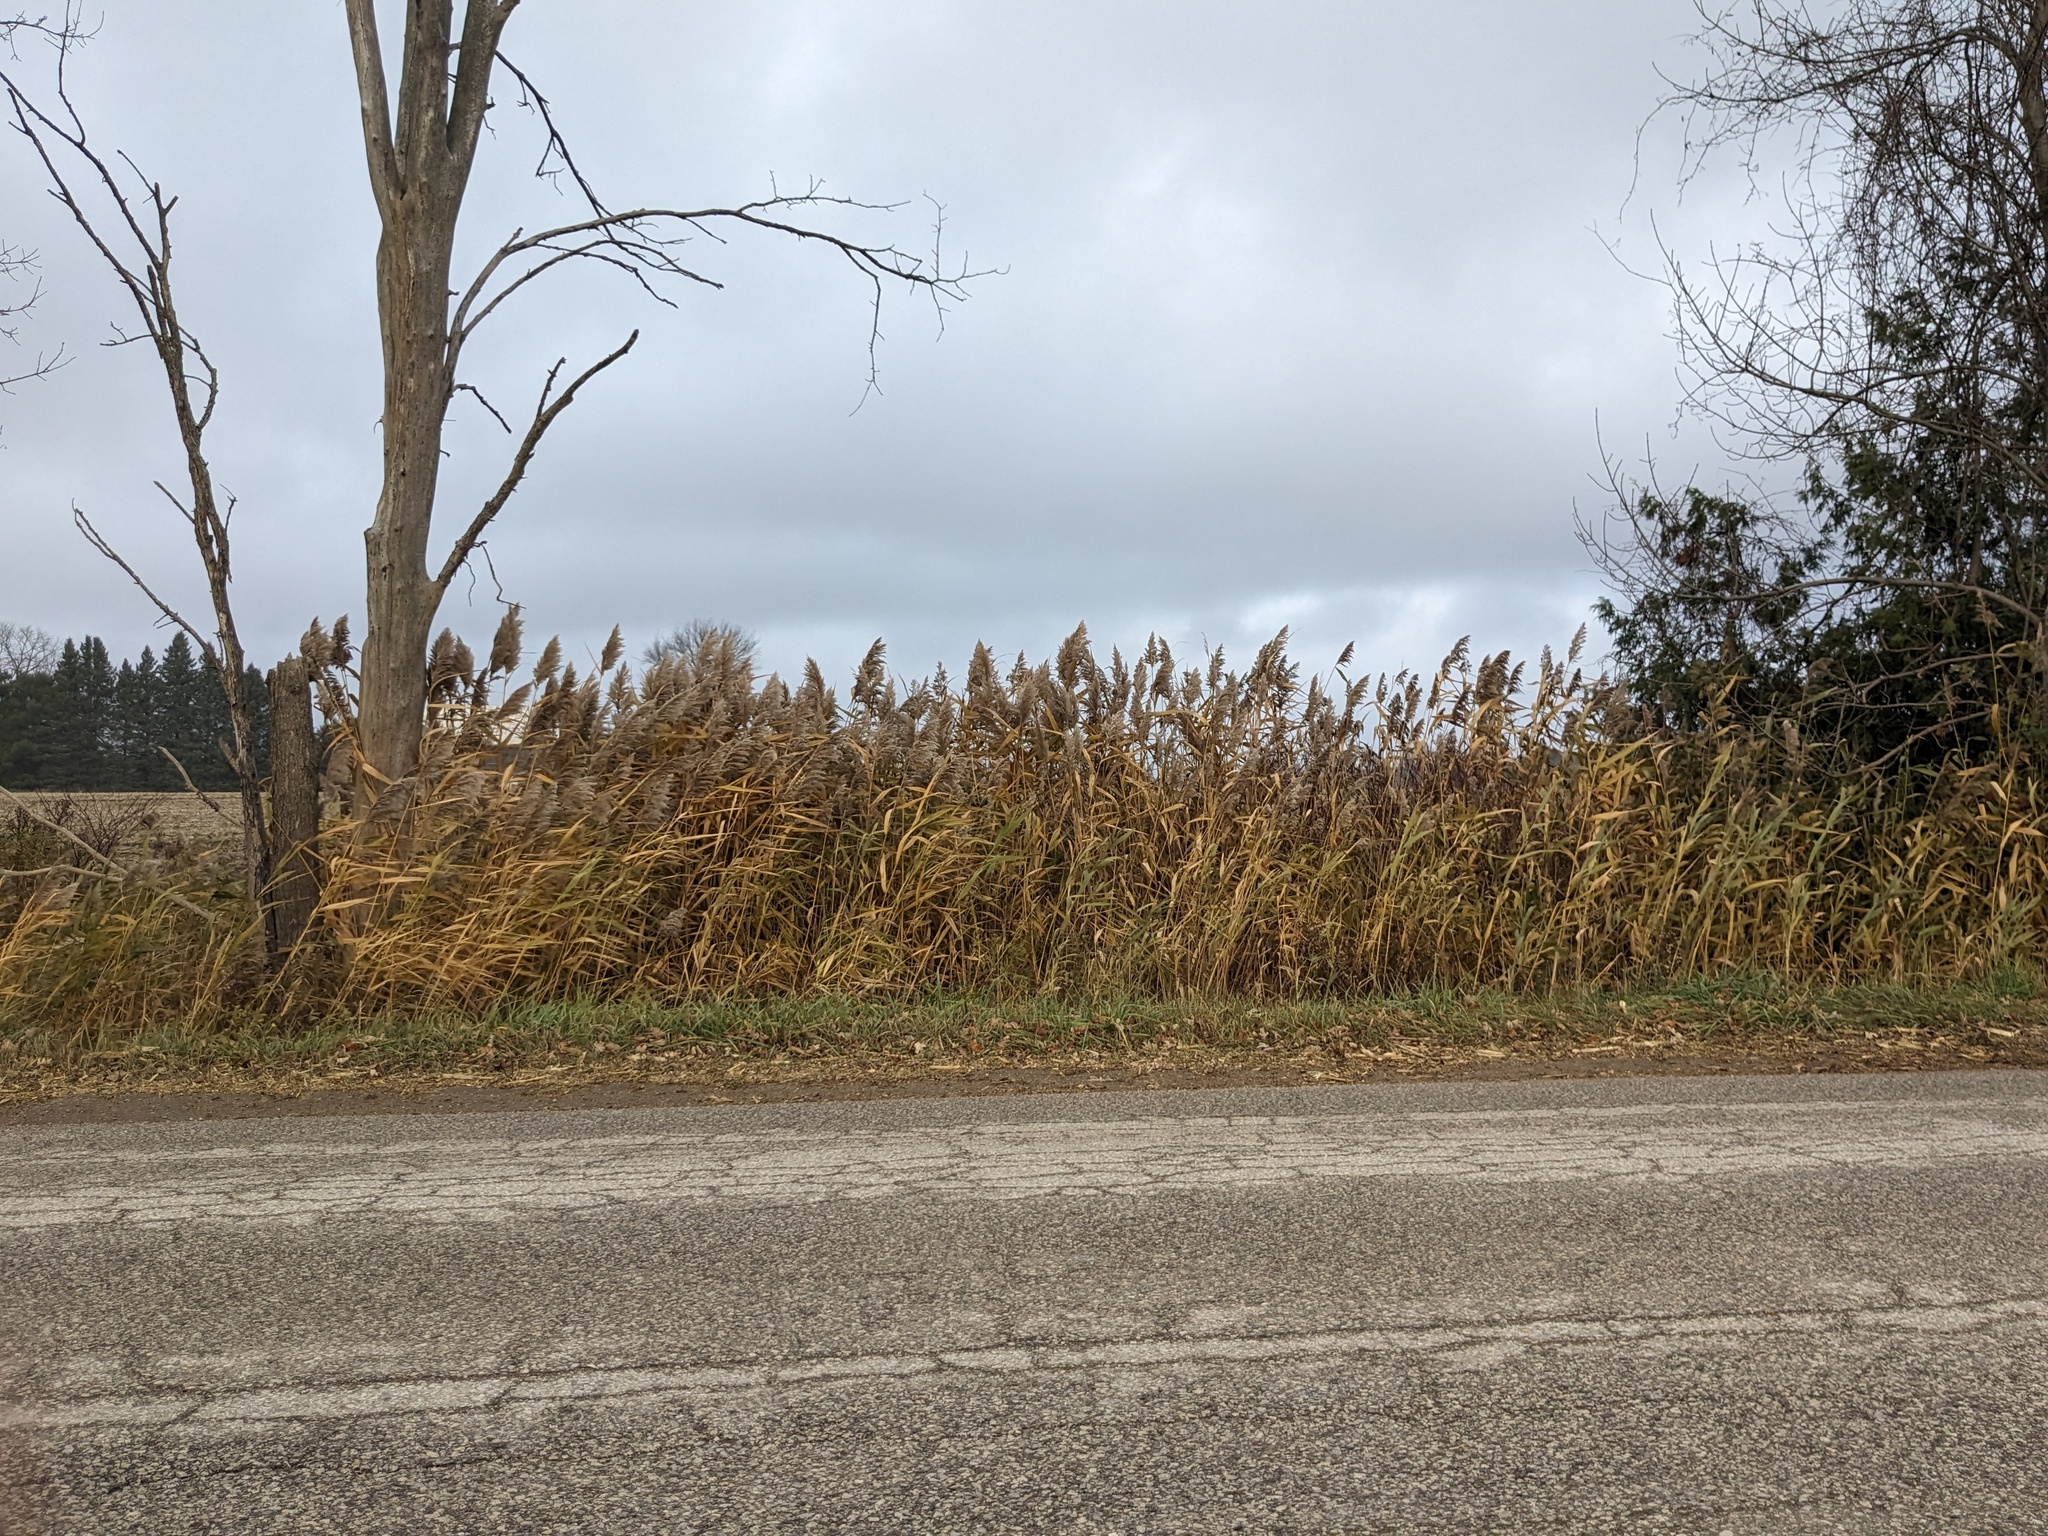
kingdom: Plantae
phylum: Tracheophyta
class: Liliopsida
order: Poales
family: Poaceae
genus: Phragmites
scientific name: Phragmites australis
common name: Common reed
